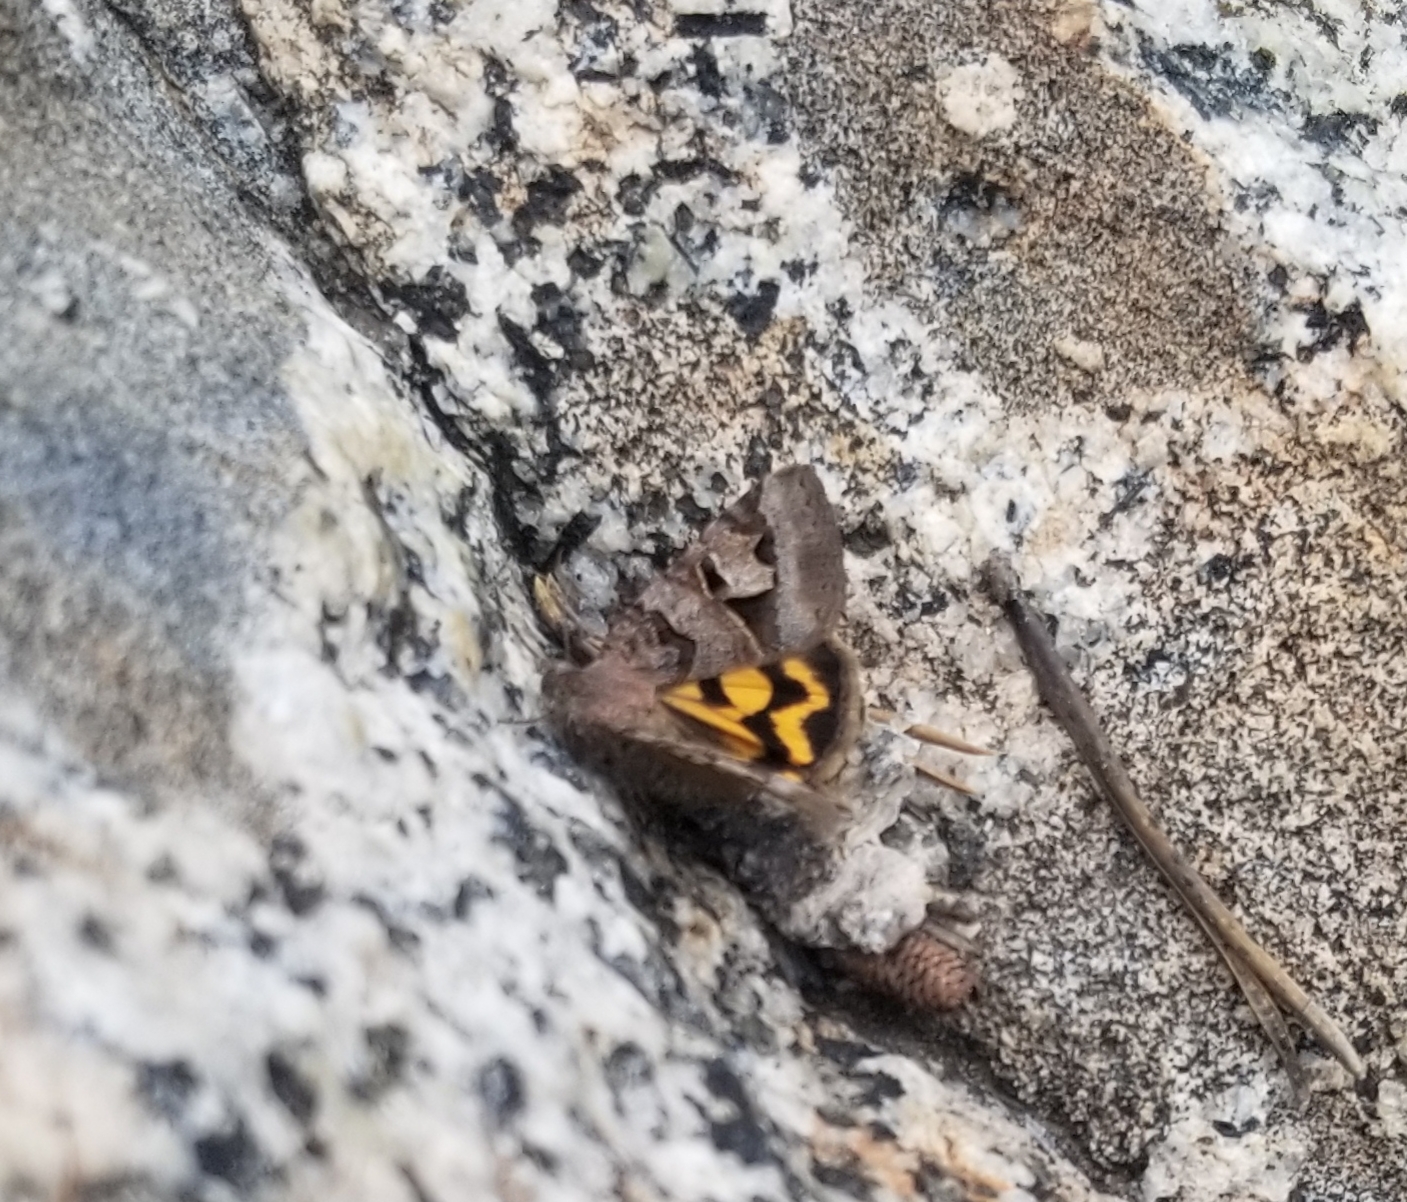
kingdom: Animalia
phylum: Arthropoda
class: Insecta
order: Lepidoptera
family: Erebidae
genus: Drasteria
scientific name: Drasteria adumbrata
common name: Shadowy arches
